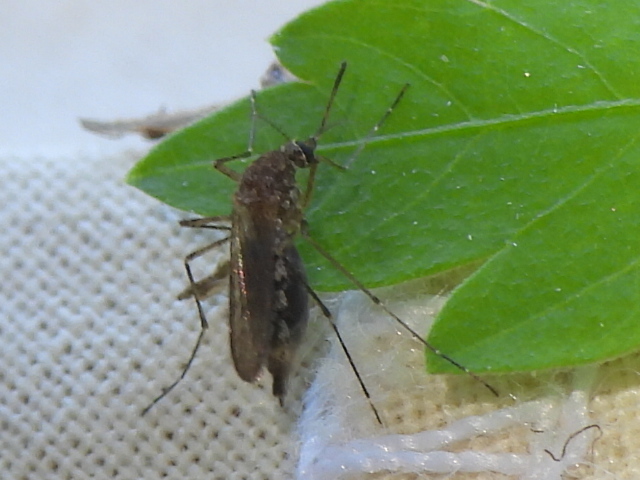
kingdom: Animalia
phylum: Arthropoda
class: Insecta
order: Diptera
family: Culicidae
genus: Aedes
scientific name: Aedes vexans
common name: Inland floodwater mosquito
